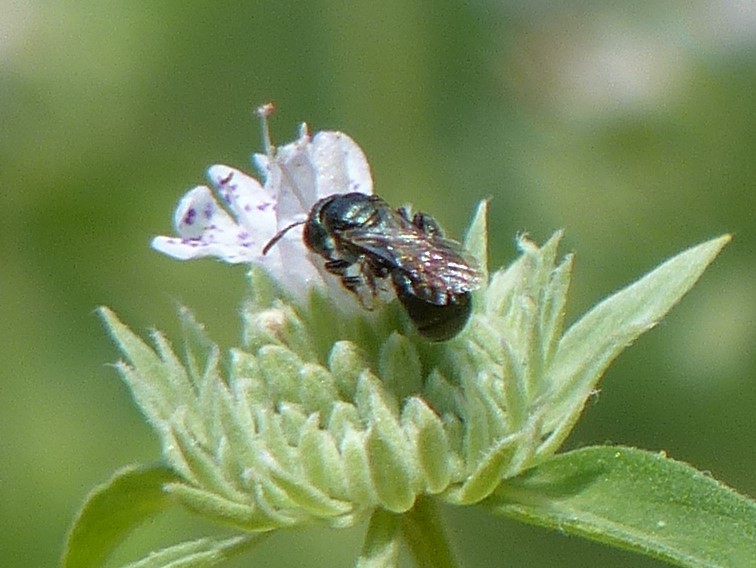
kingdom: Animalia
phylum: Arthropoda
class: Insecta
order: Hymenoptera
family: Apidae
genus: Zadontomerus
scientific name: Zadontomerus
